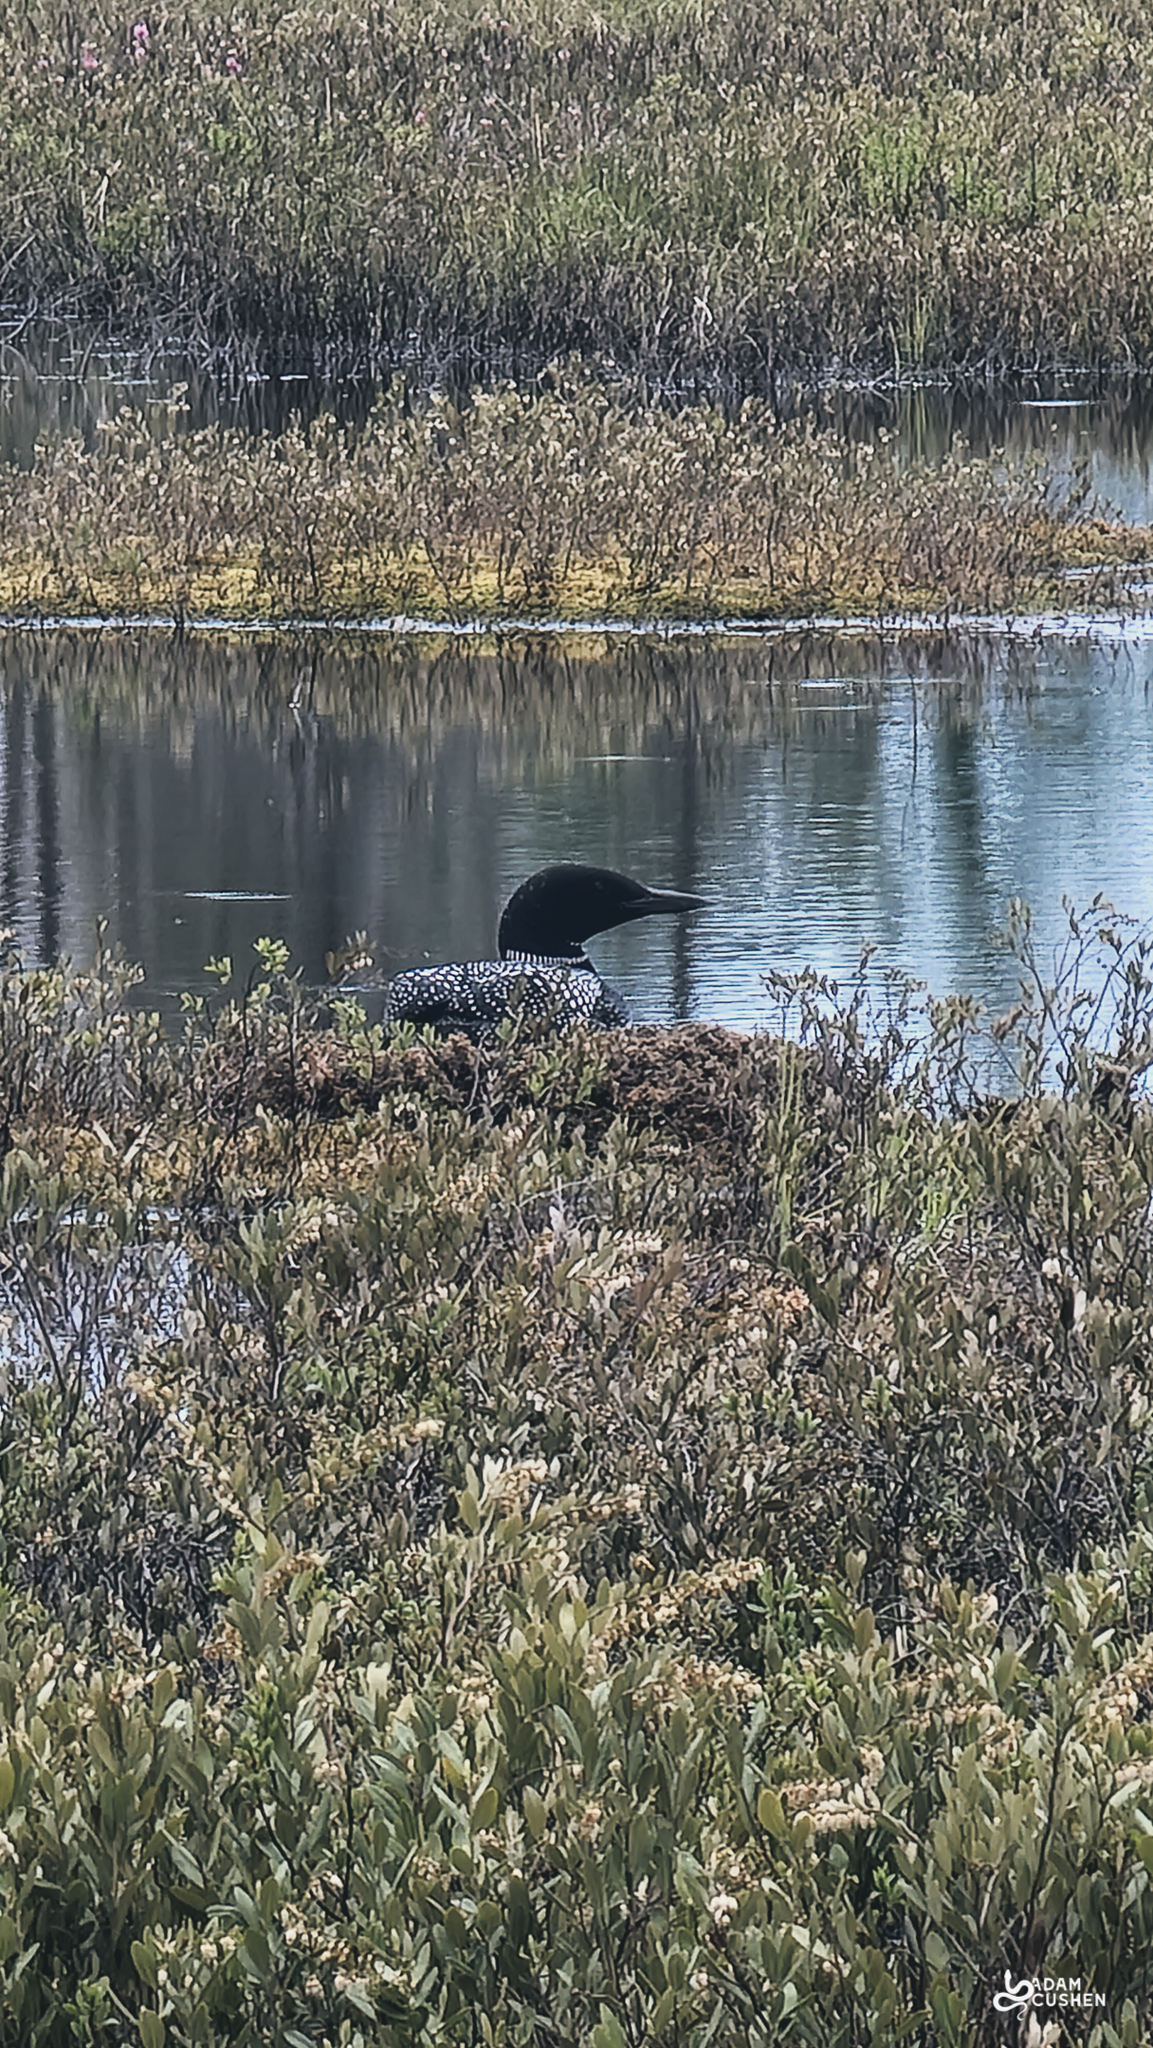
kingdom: Animalia
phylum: Chordata
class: Aves
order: Gaviiformes
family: Gaviidae
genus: Gavia
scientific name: Gavia immer
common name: Common loon
